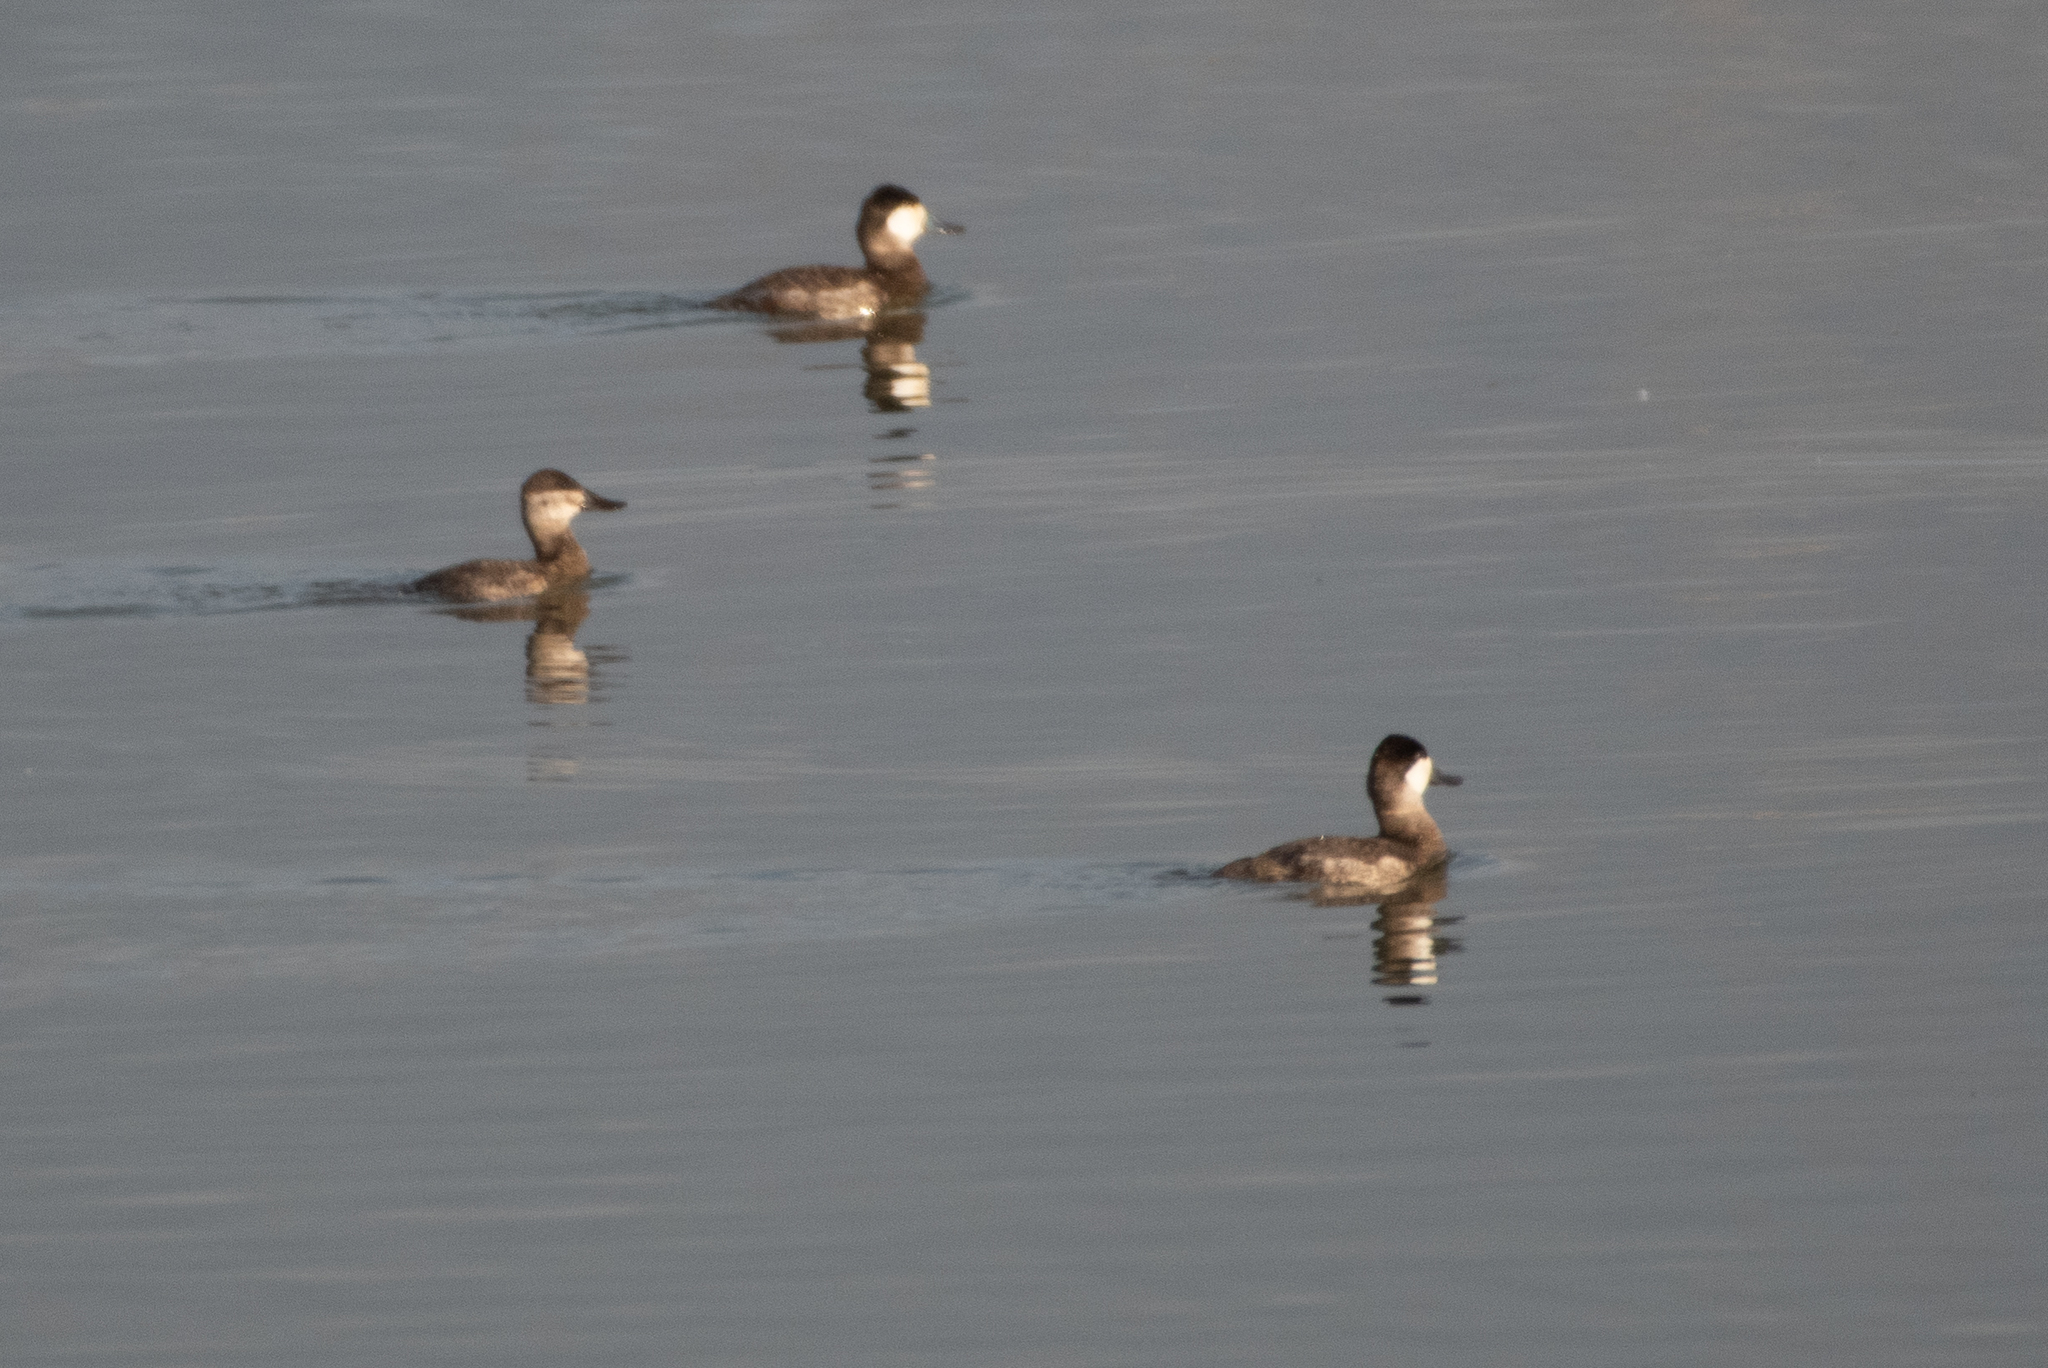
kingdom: Animalia
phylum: Chordata
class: Aves
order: Anseriformes
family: Anatidae
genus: Oxyura
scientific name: Oxyura jamaicensis
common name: Ruddy duck
